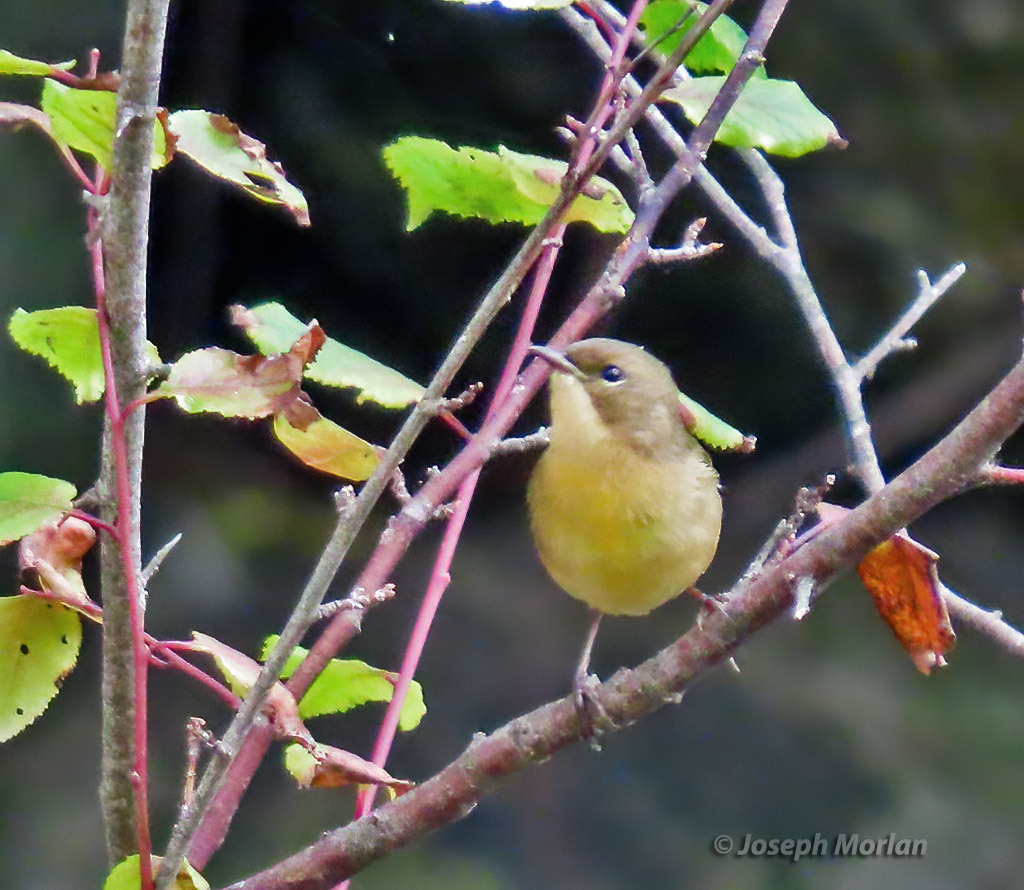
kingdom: Animalia
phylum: Chordata
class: Aves
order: Passeriformes
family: Parulidae
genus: Geothlypis
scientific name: Geothlypis trichas
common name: Common yellowthroat
